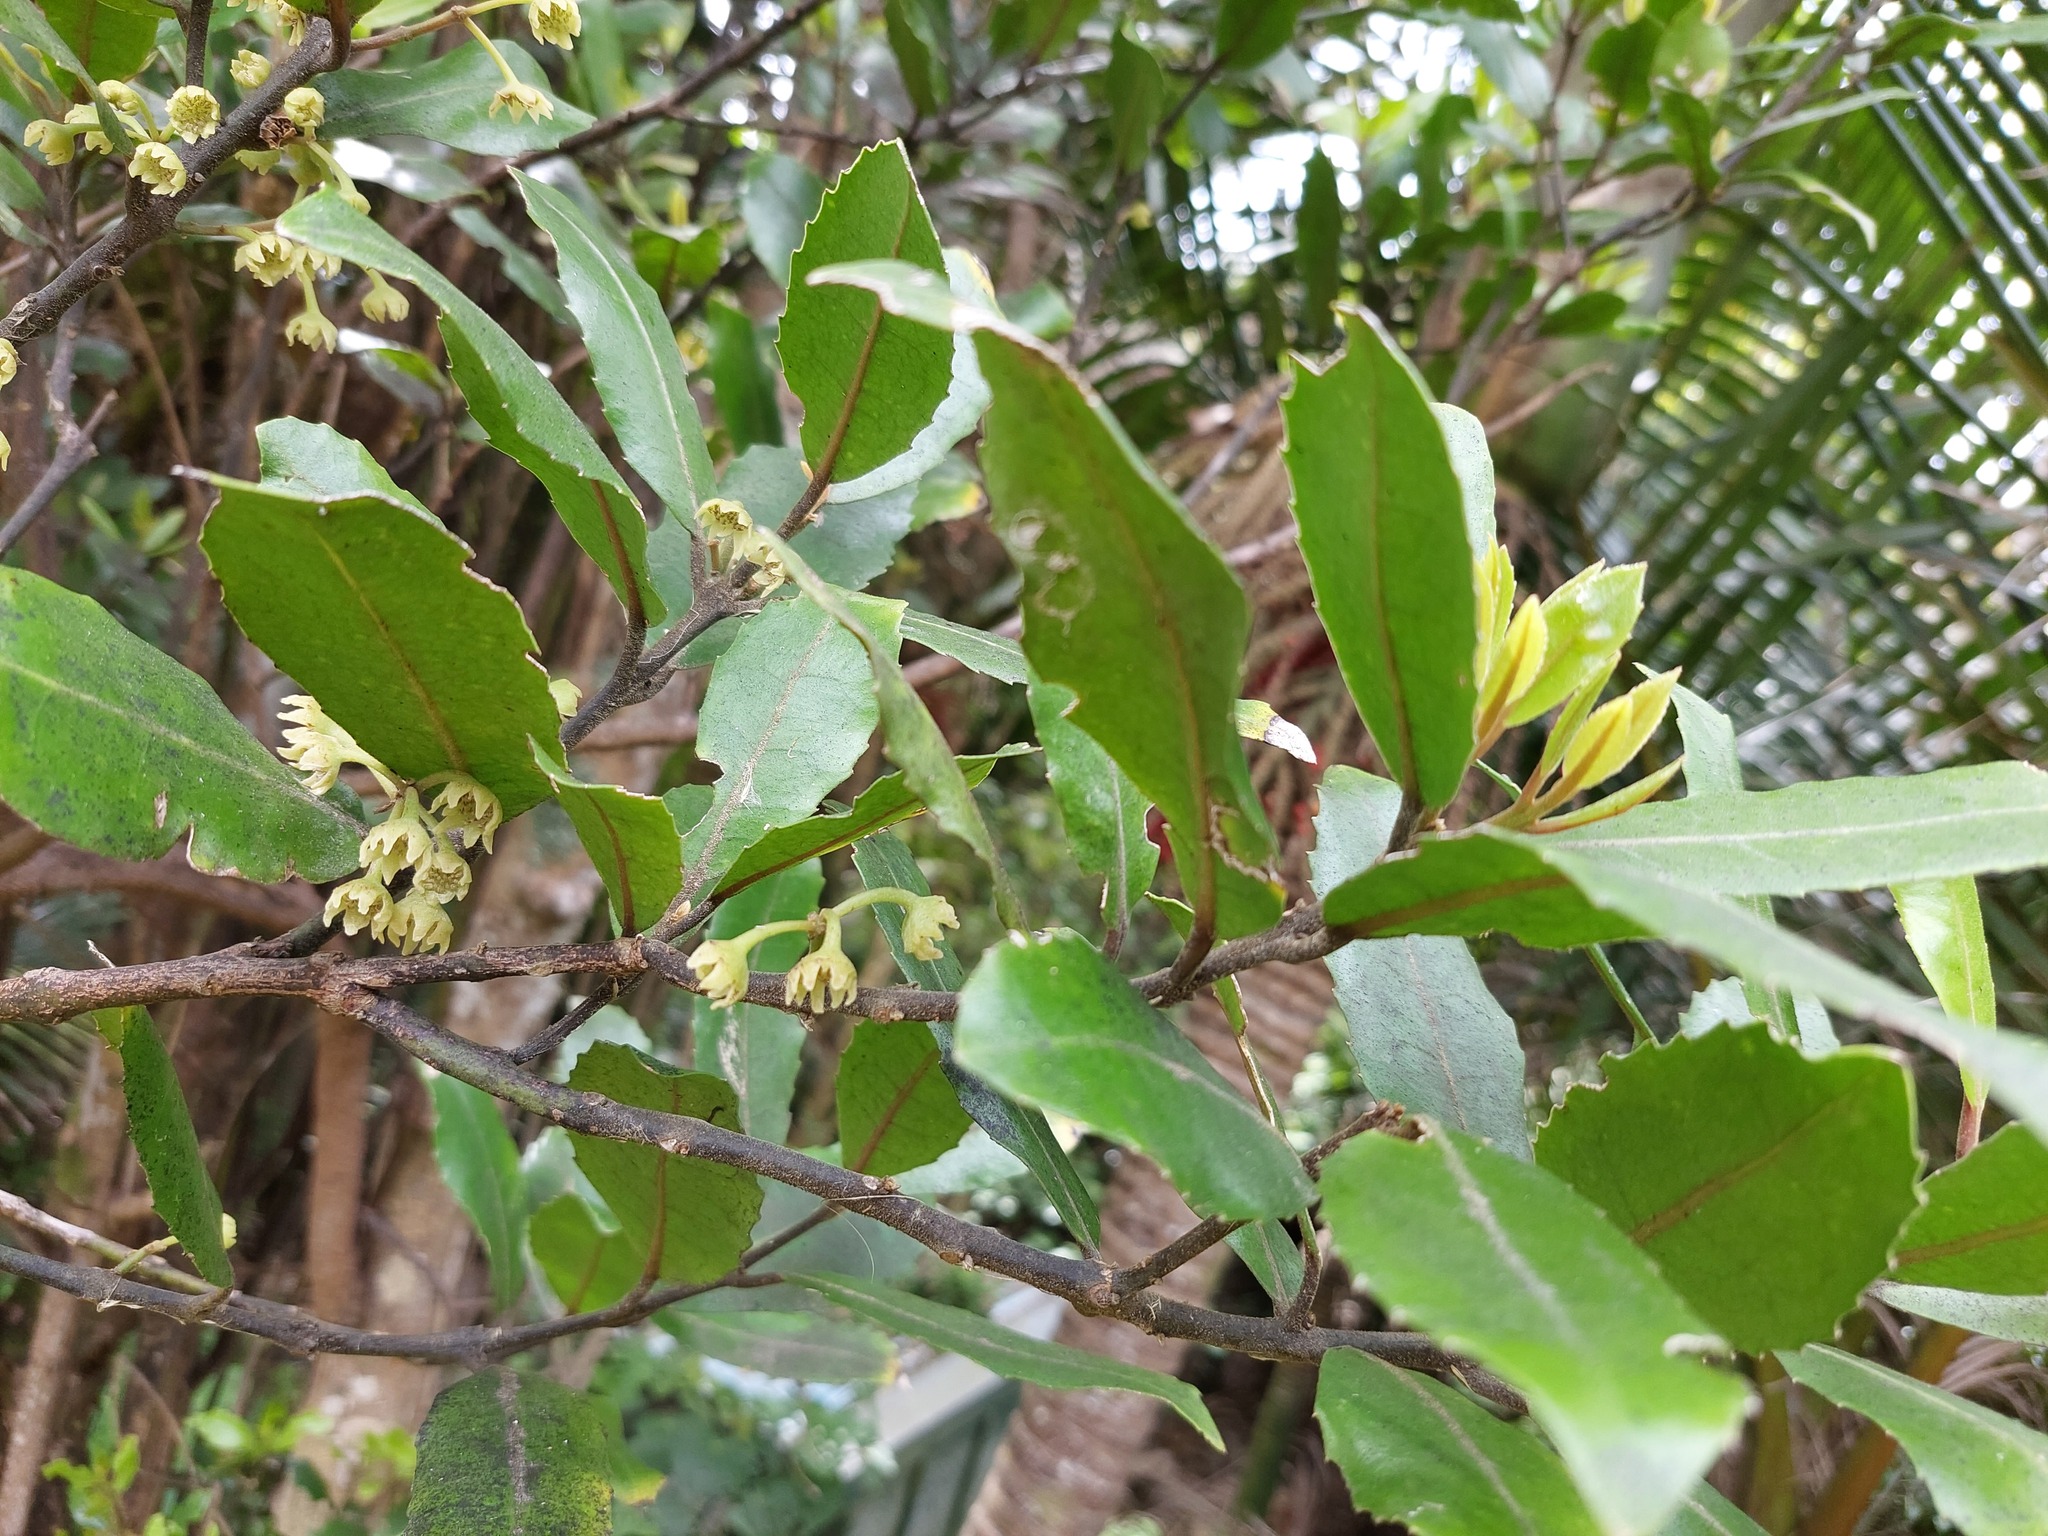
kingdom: Plantae
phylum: Tracheophyta
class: Magnoliopsida
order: Laurales
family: Monimiaceae
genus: Hedycarya
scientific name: Hedycarya arborea
